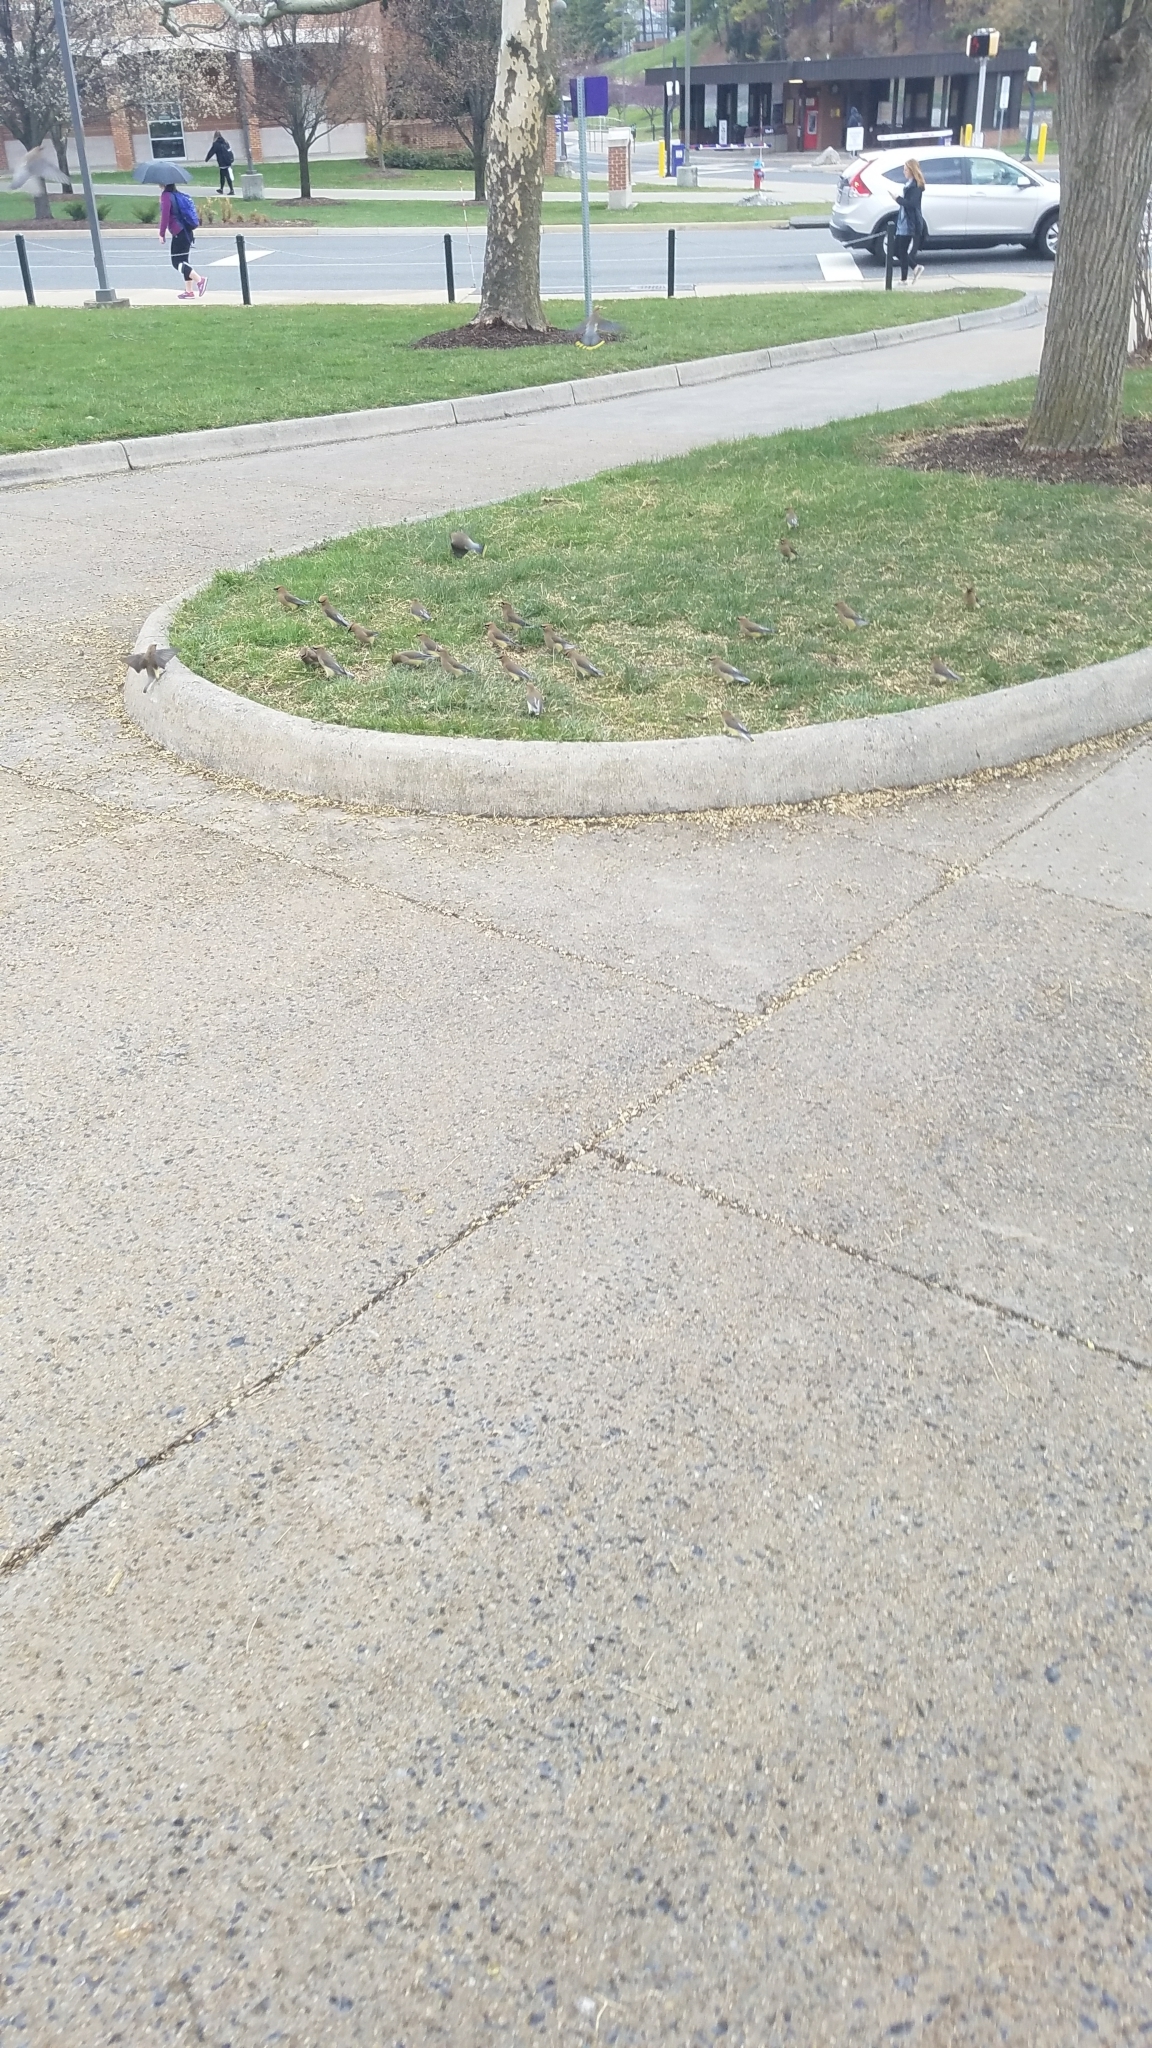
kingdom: Animalia
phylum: Chordata
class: Aves
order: Passeriformes
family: Bombycillidae
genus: Bombycilla
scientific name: Bombycilla cedrorum
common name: Cedar waxwing
